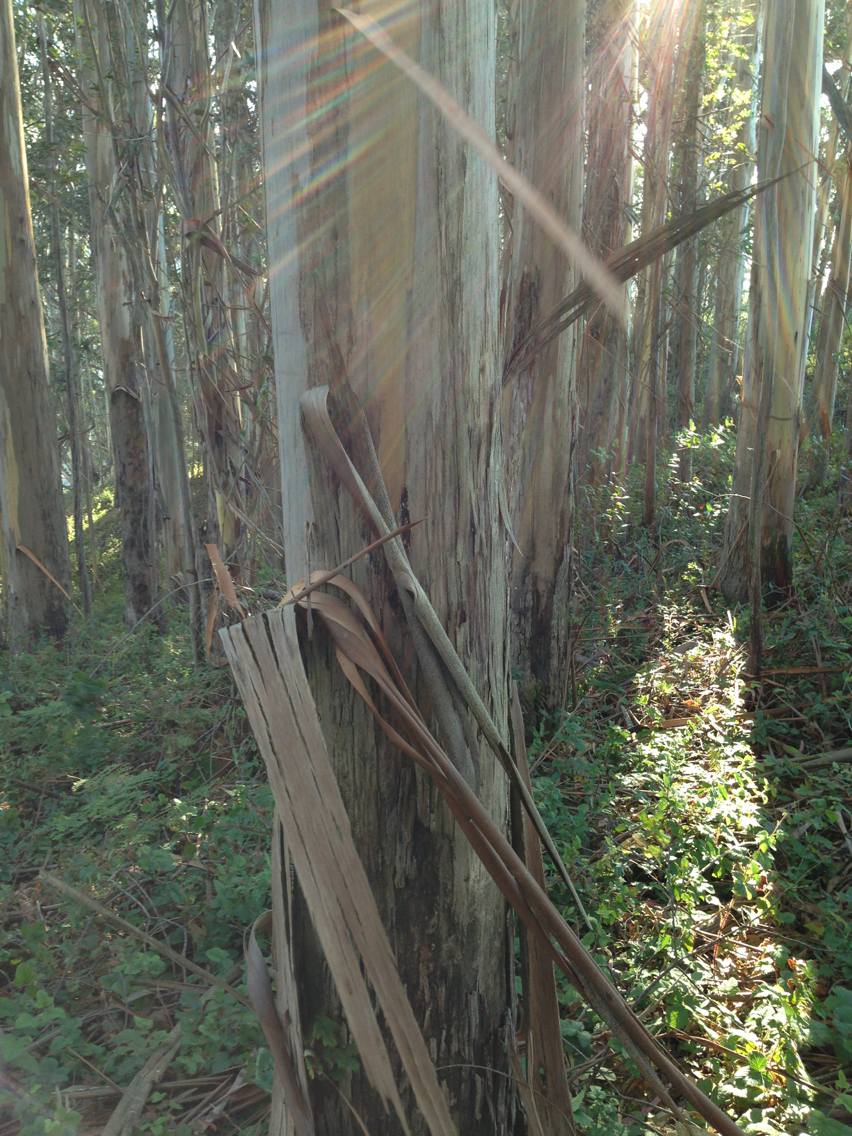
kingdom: Plantae
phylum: Tracheophyta
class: Magnoliopsida
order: Myrtales
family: Myrtaceae
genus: Eucalyptus
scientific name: Eucalyptus globulus
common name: Southern blue-gum
